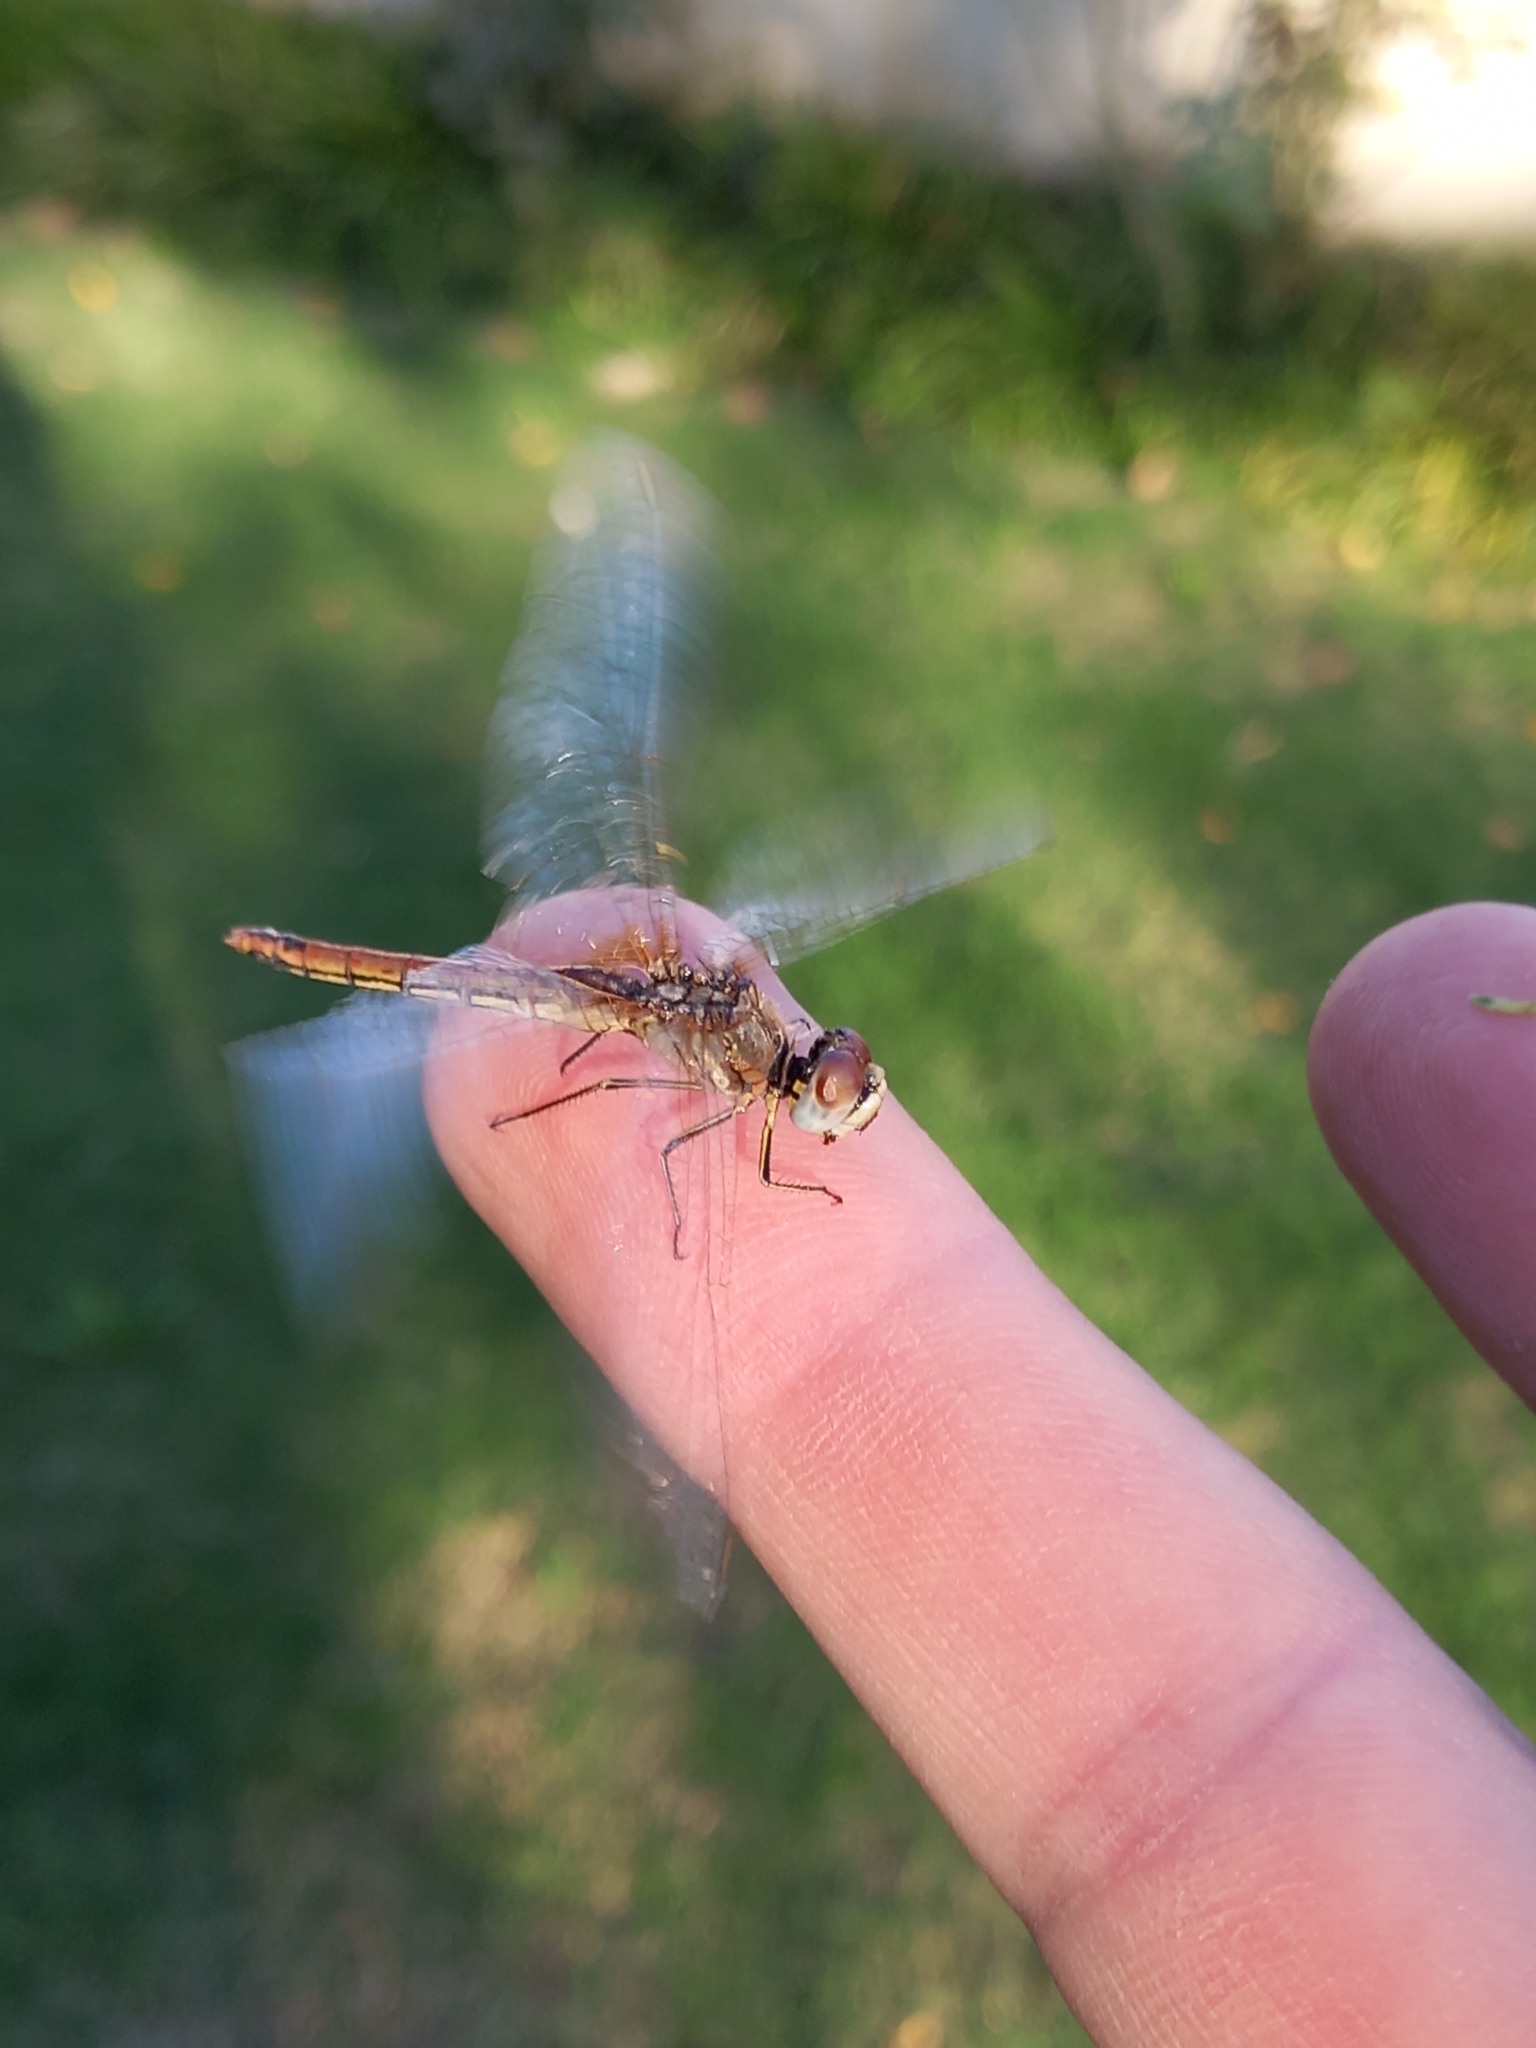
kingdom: Animalia
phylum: Arthropoda
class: Insecta
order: Odonata
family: Libellulidae
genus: Sympetrum
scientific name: Sympetrum fonscolombii
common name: Red-veined darter
